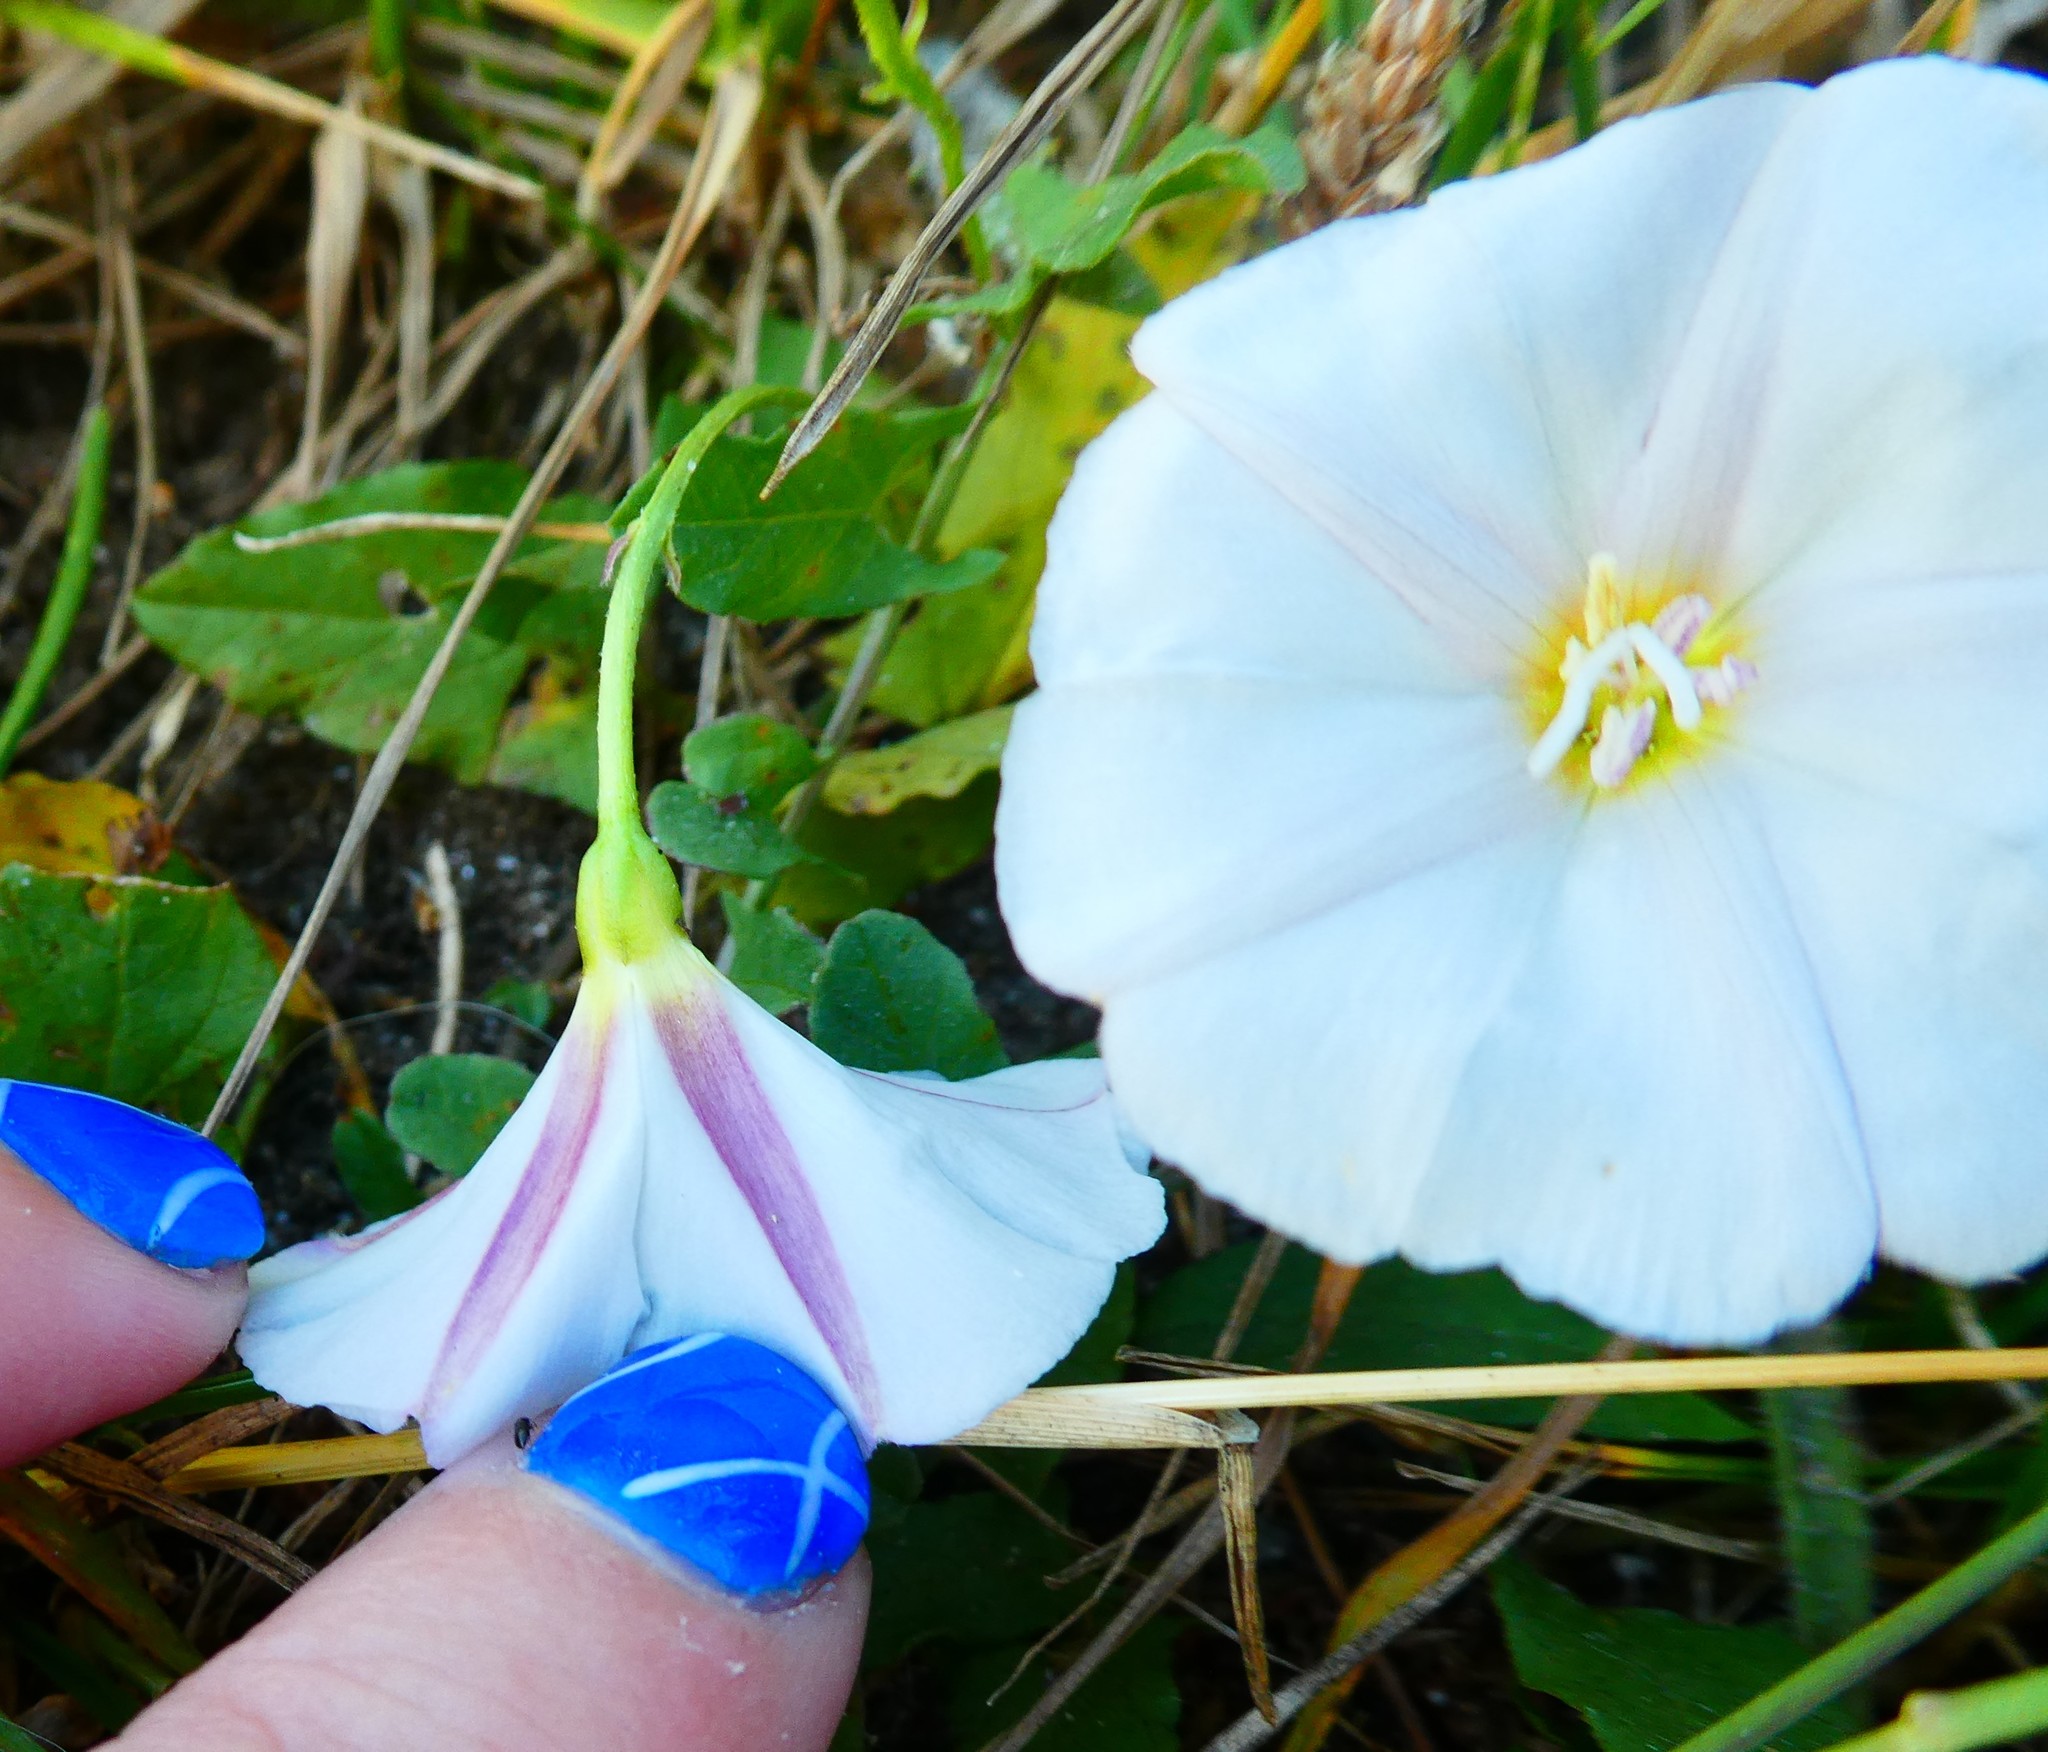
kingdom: Plantae
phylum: Tracheophyta
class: Magnoliopsida
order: Solanales
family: Convolvulaceae
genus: Convolvulus
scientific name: Convolvulus arvensis
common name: Field bindweed
